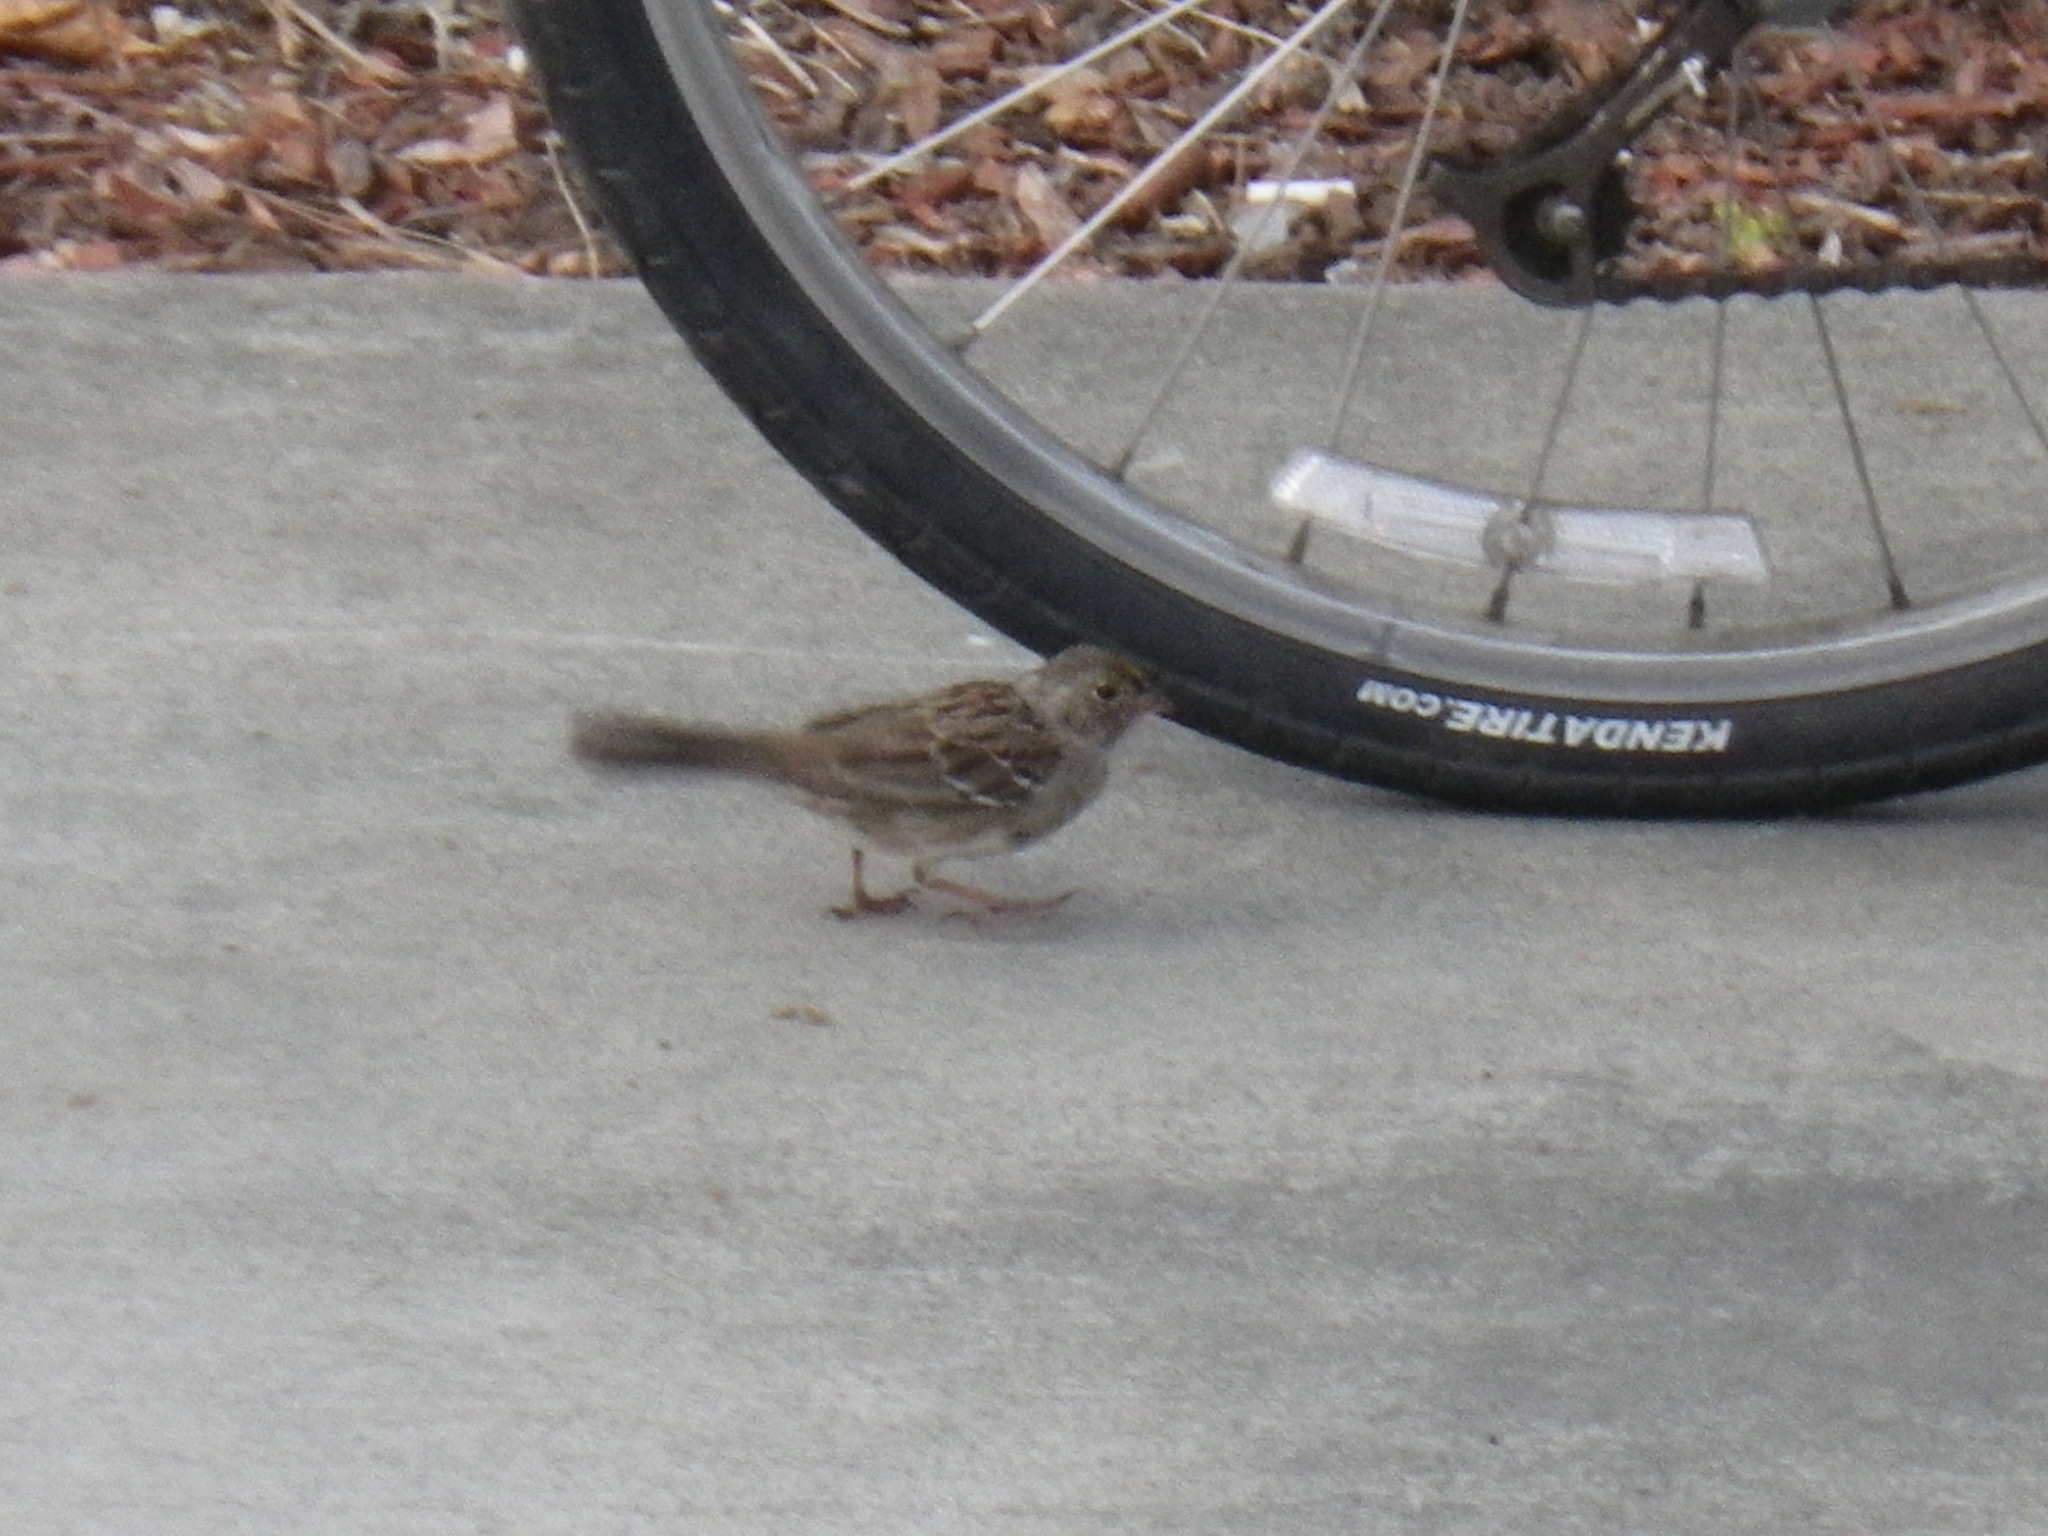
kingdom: Animalia
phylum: Chordata
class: Aves
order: Passeriformes
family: Passerellidae
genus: Zonotrichia
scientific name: Zonotrichia atricapilla
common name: Golden-crowned sparrow
